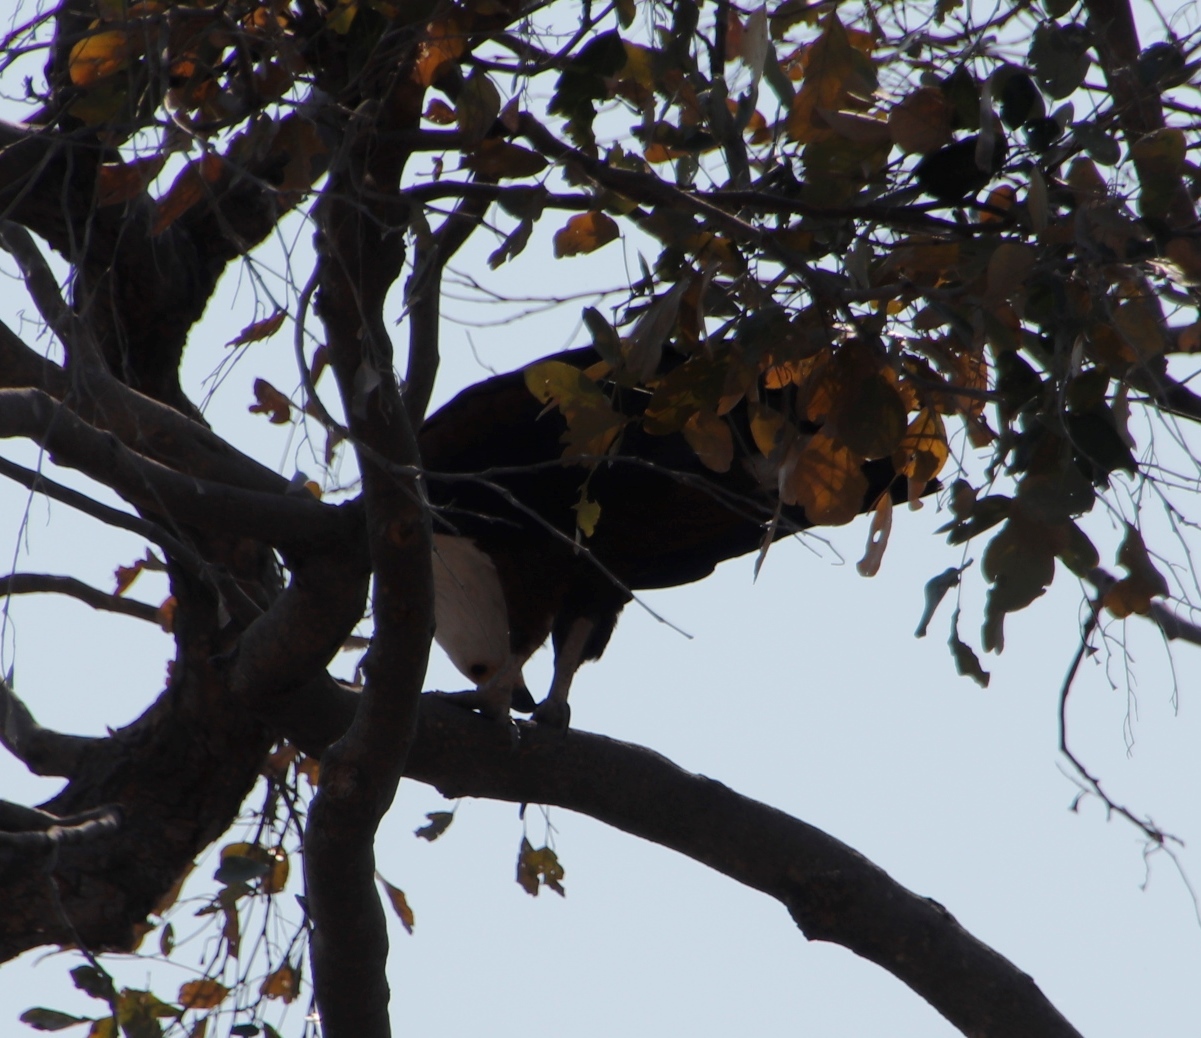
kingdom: Animalia
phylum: Chordata
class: Aves
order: Accipitriformes
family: Accipitridae
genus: Haliaeetus
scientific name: Haliaeetus vocifer
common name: African fish eagle
